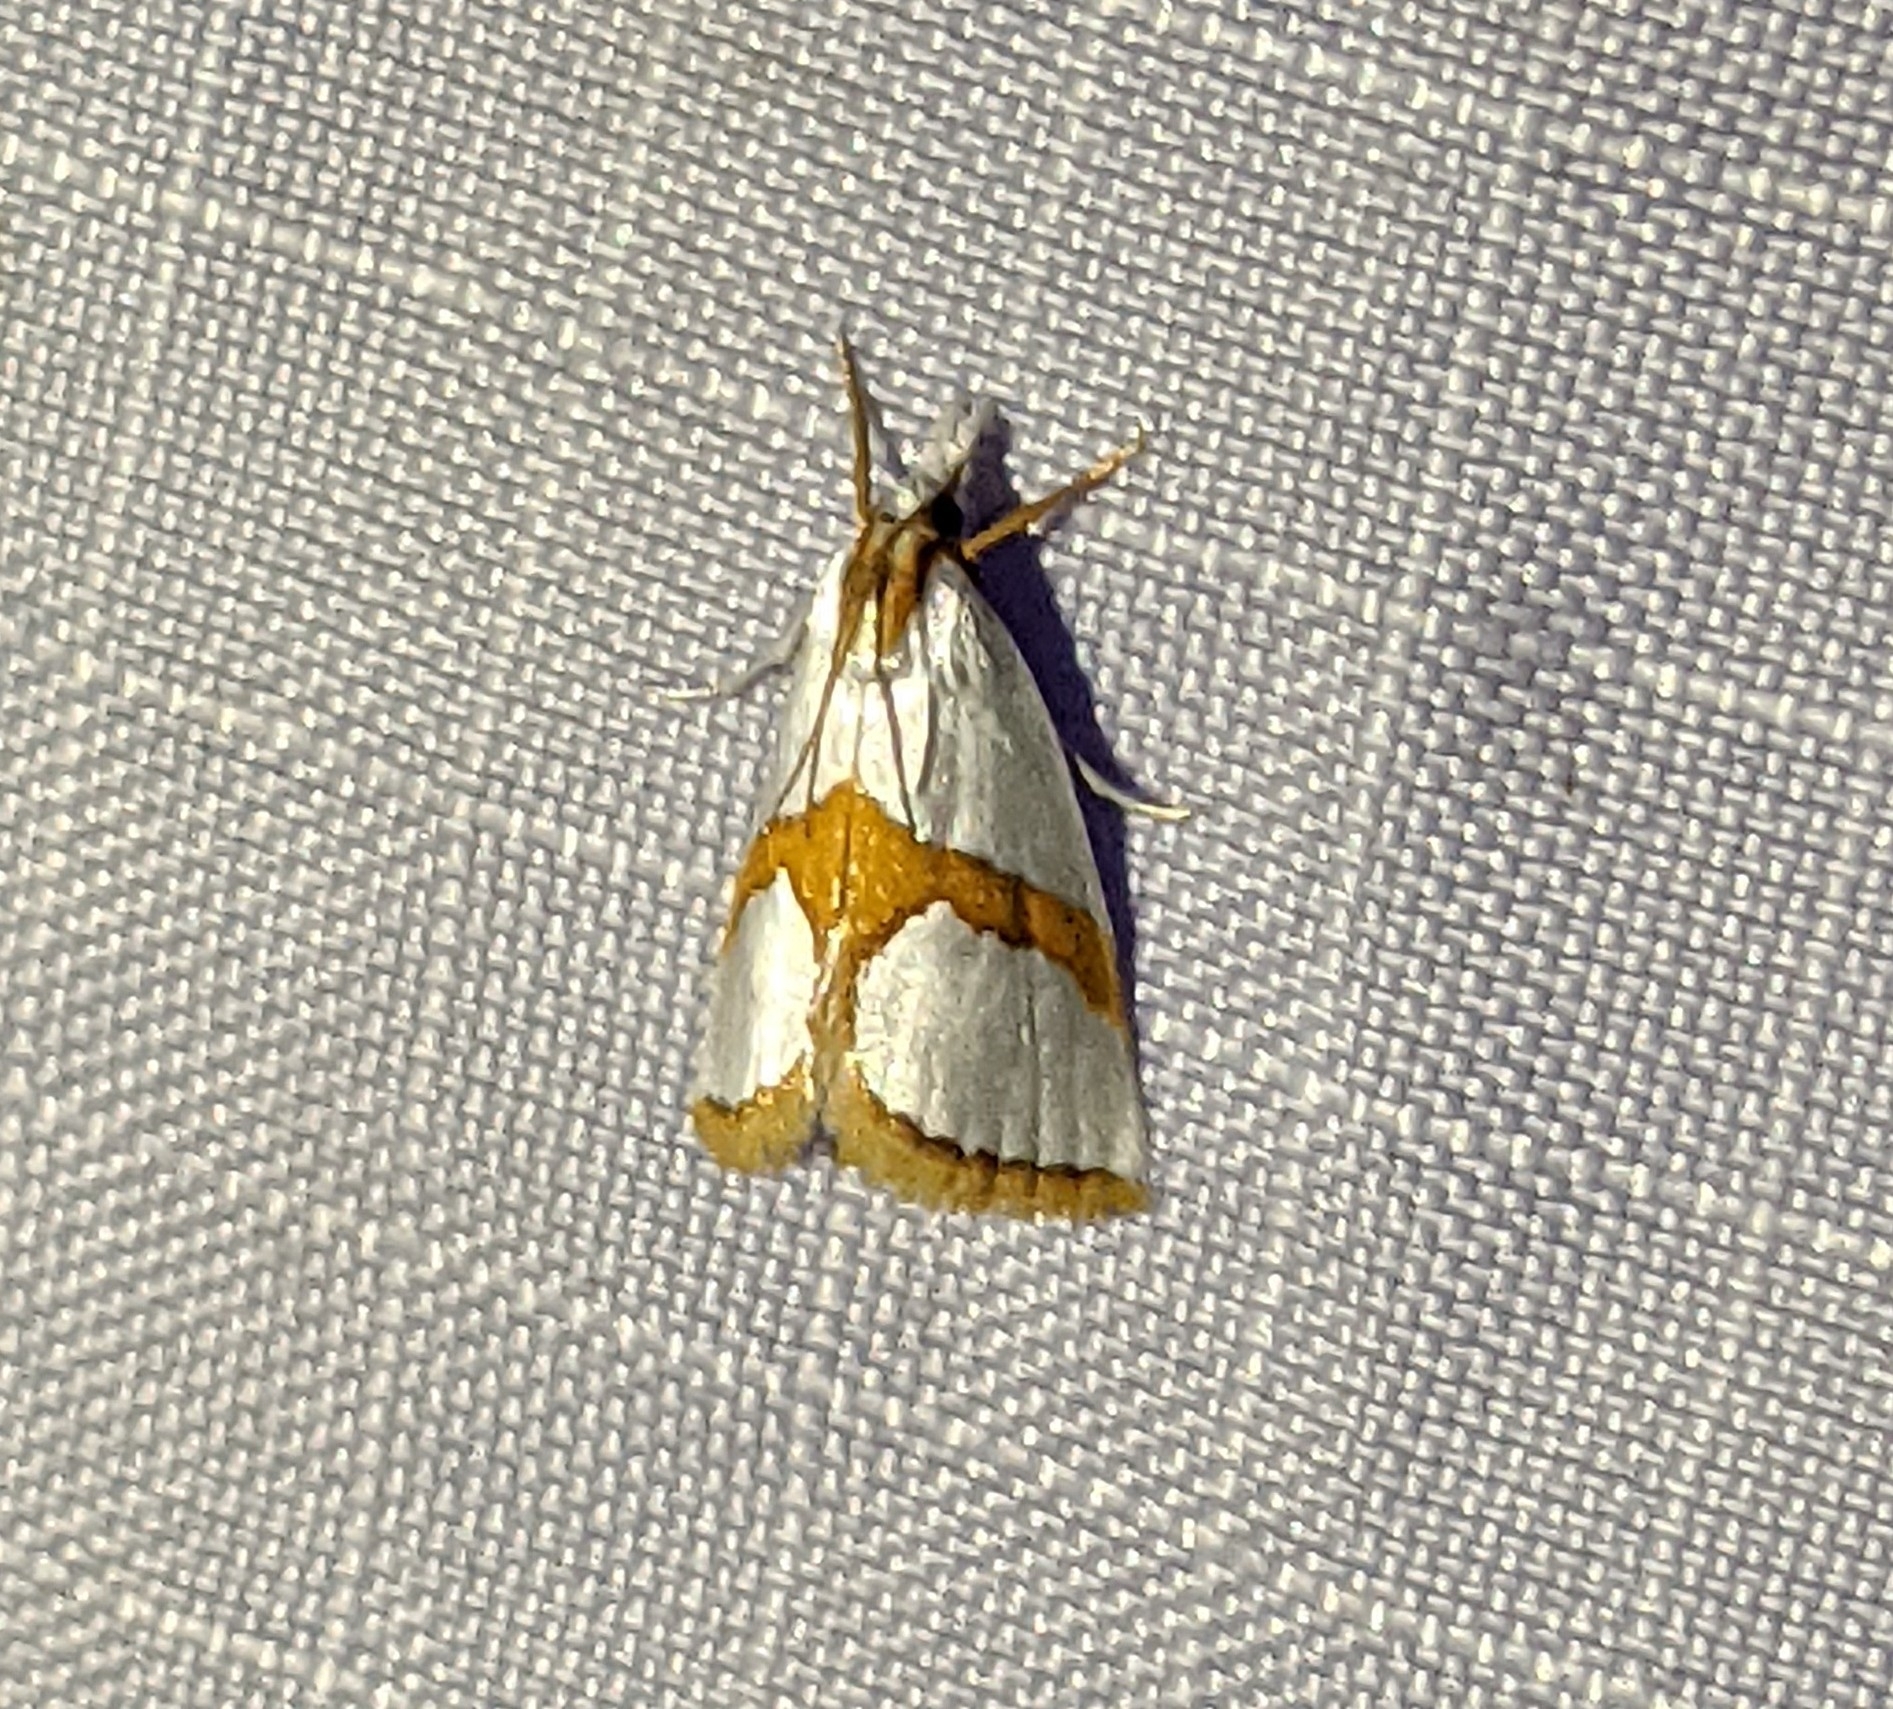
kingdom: Animalia
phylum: Arthropoda
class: Insecta
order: Lepidoptera
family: Crambidae
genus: Argyria
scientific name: Argyria auratella
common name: Curve-lined argyria moth
